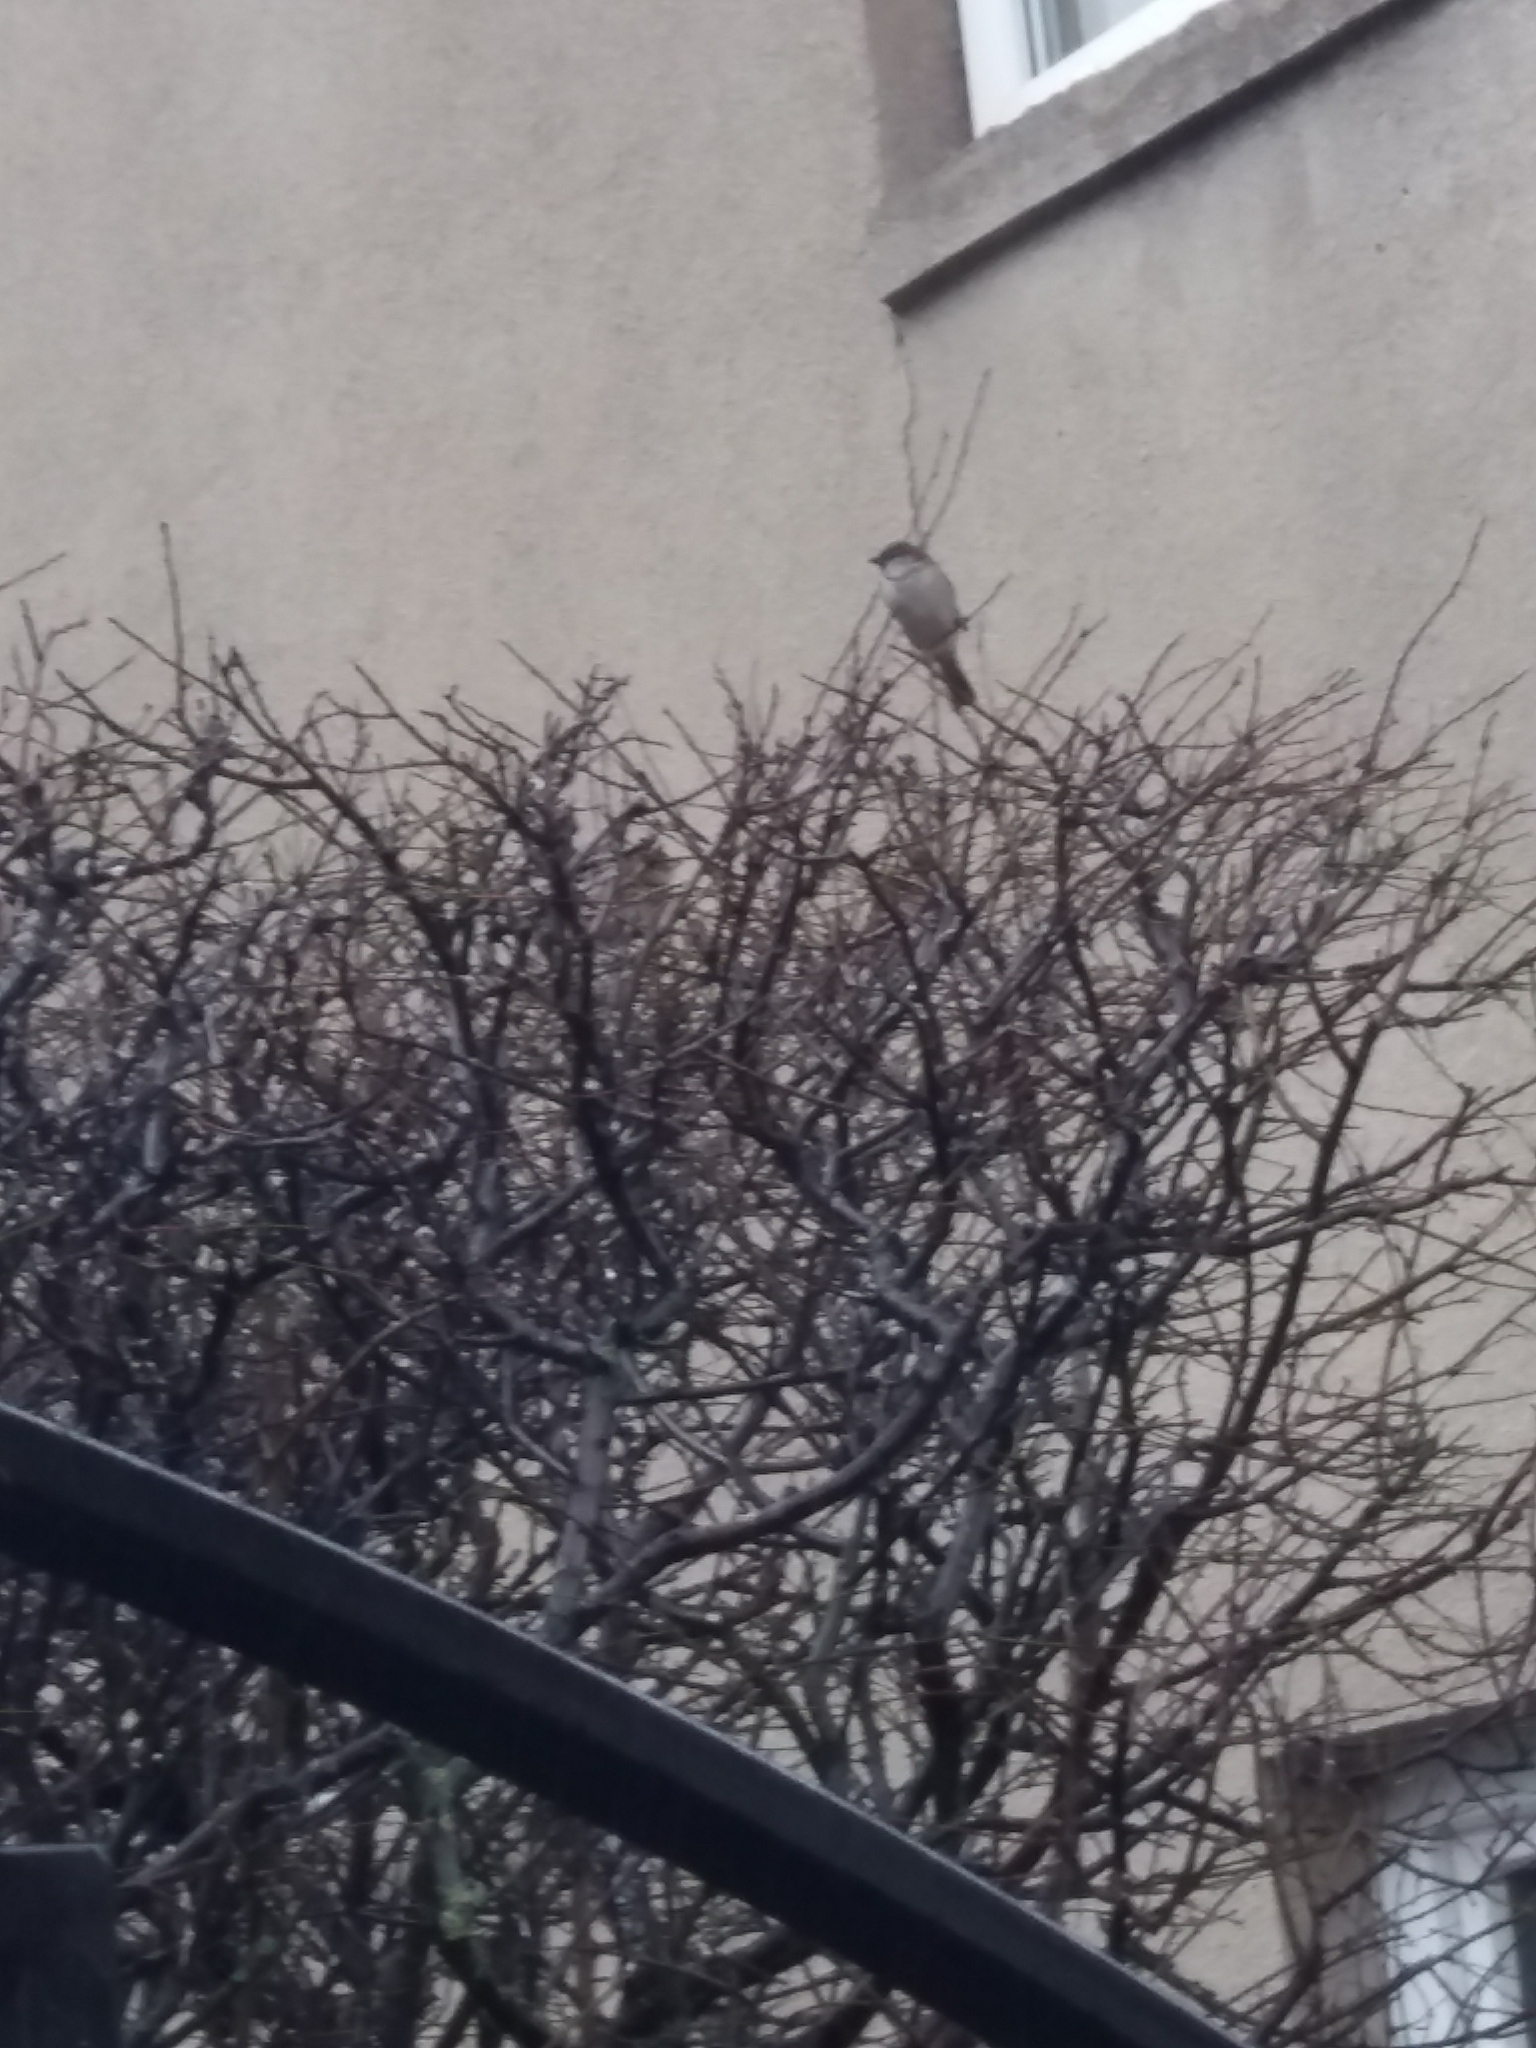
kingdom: Animalia
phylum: Chordata
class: Aves
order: Passeriformes
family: Passeridae
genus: Passer
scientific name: Passer domesticus
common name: House sparrow
